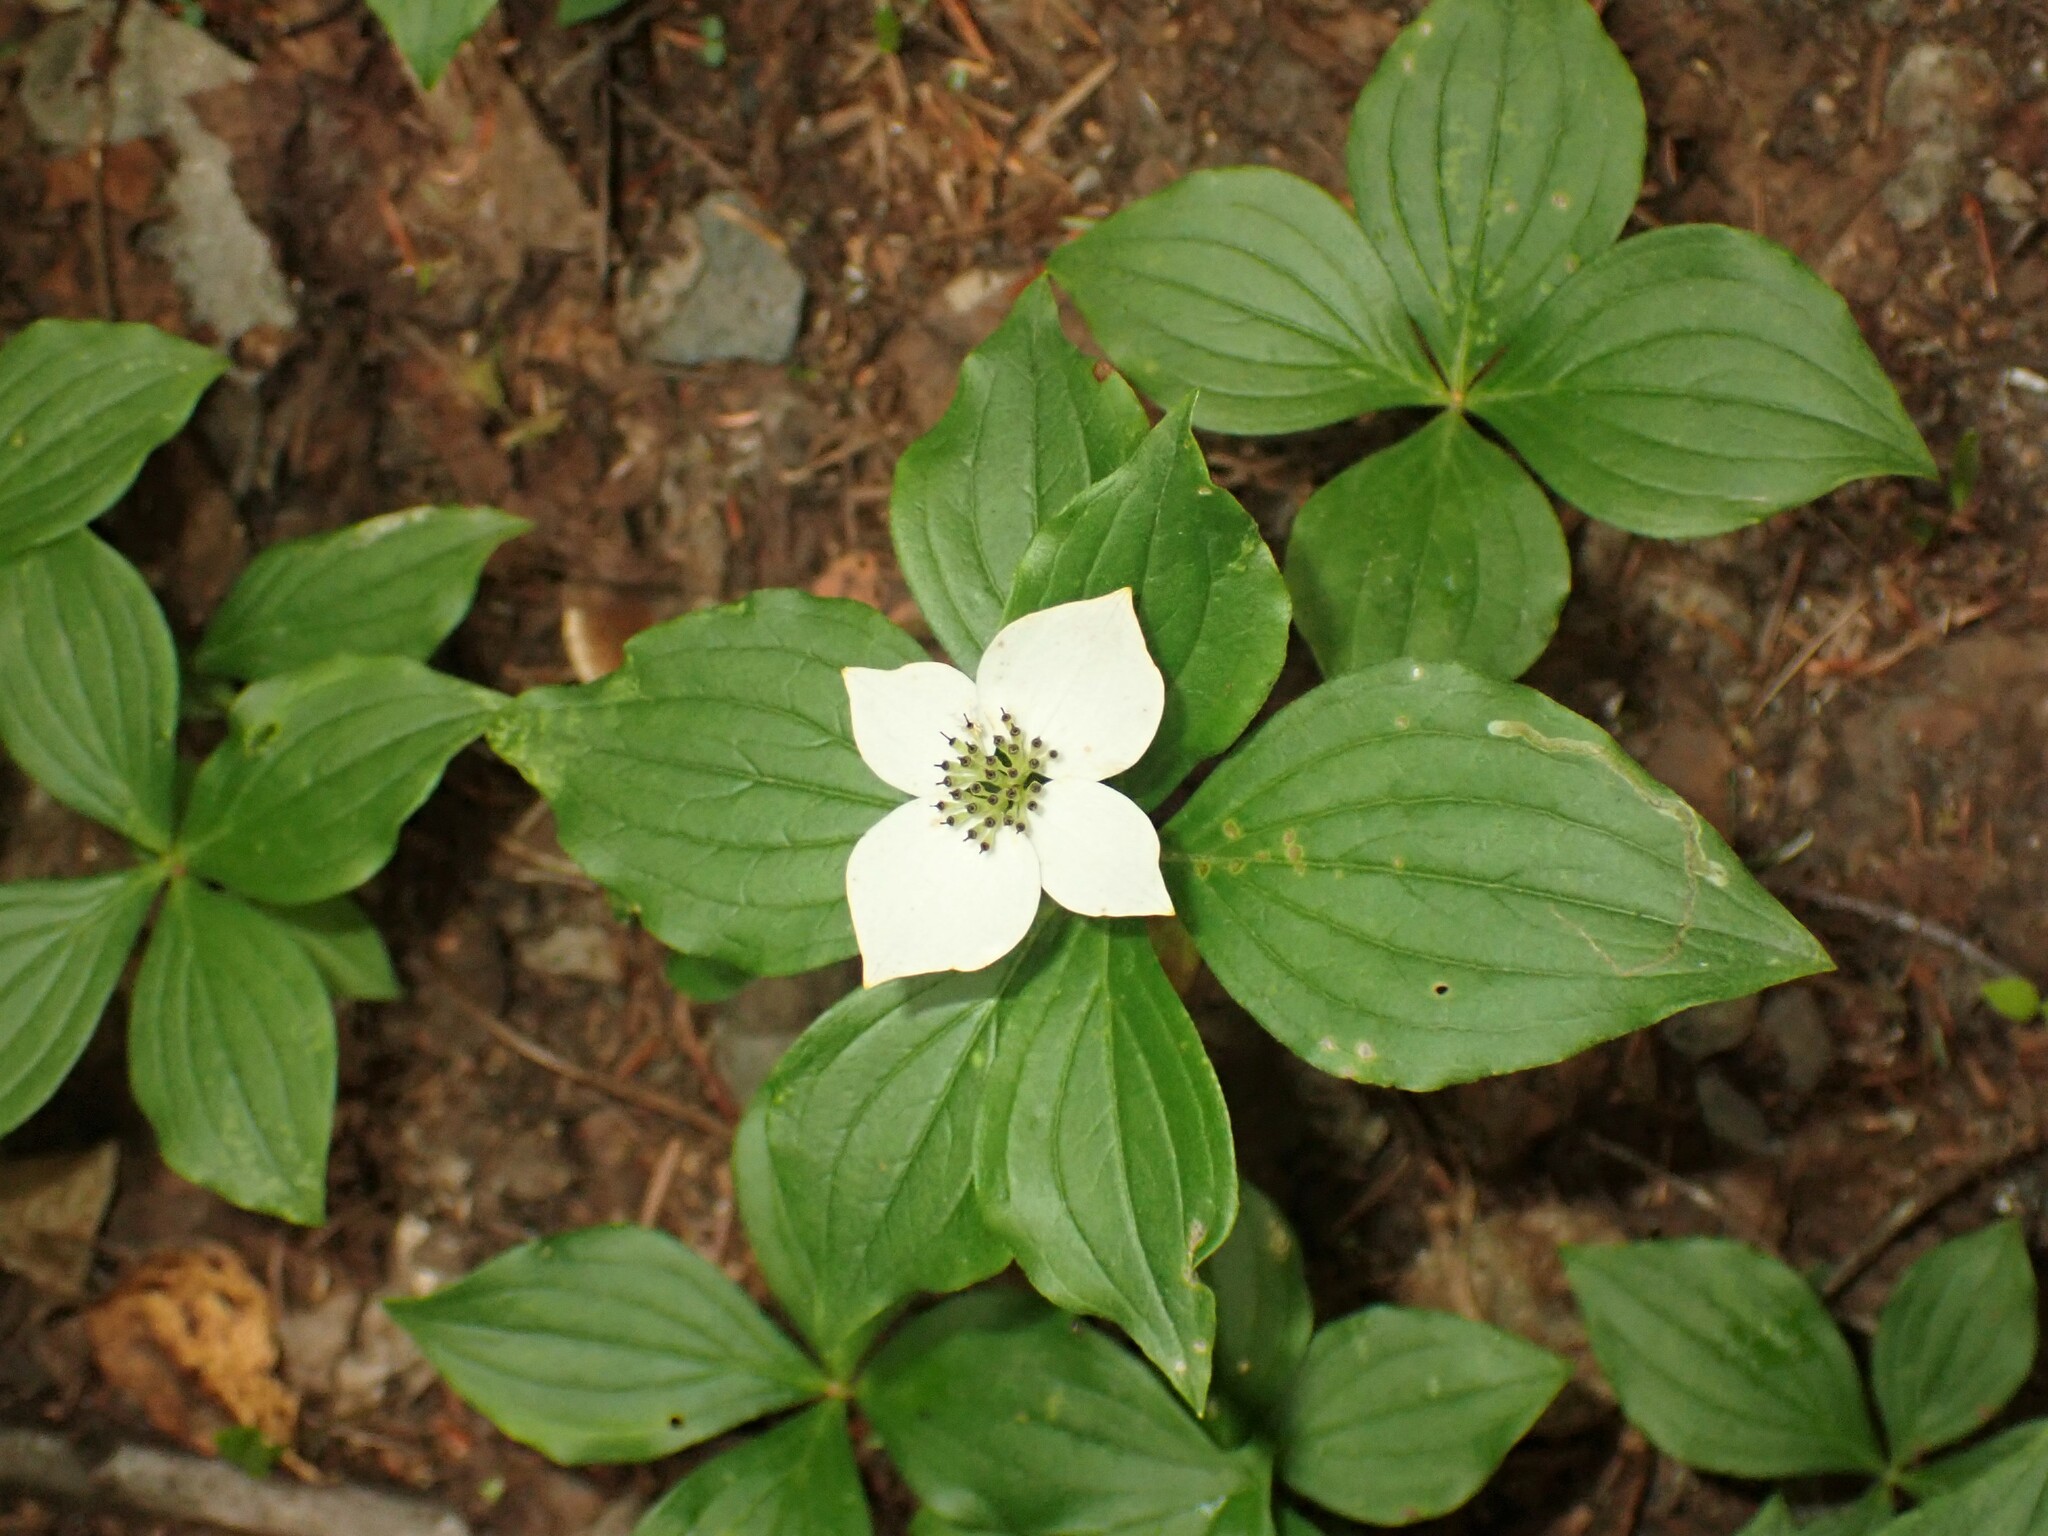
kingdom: Plantae
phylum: Tracheophyta
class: Magnoliopsida
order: Cornales
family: Cornaceae
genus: Cornus
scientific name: Cornus canadensis
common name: Creeping dogwood
